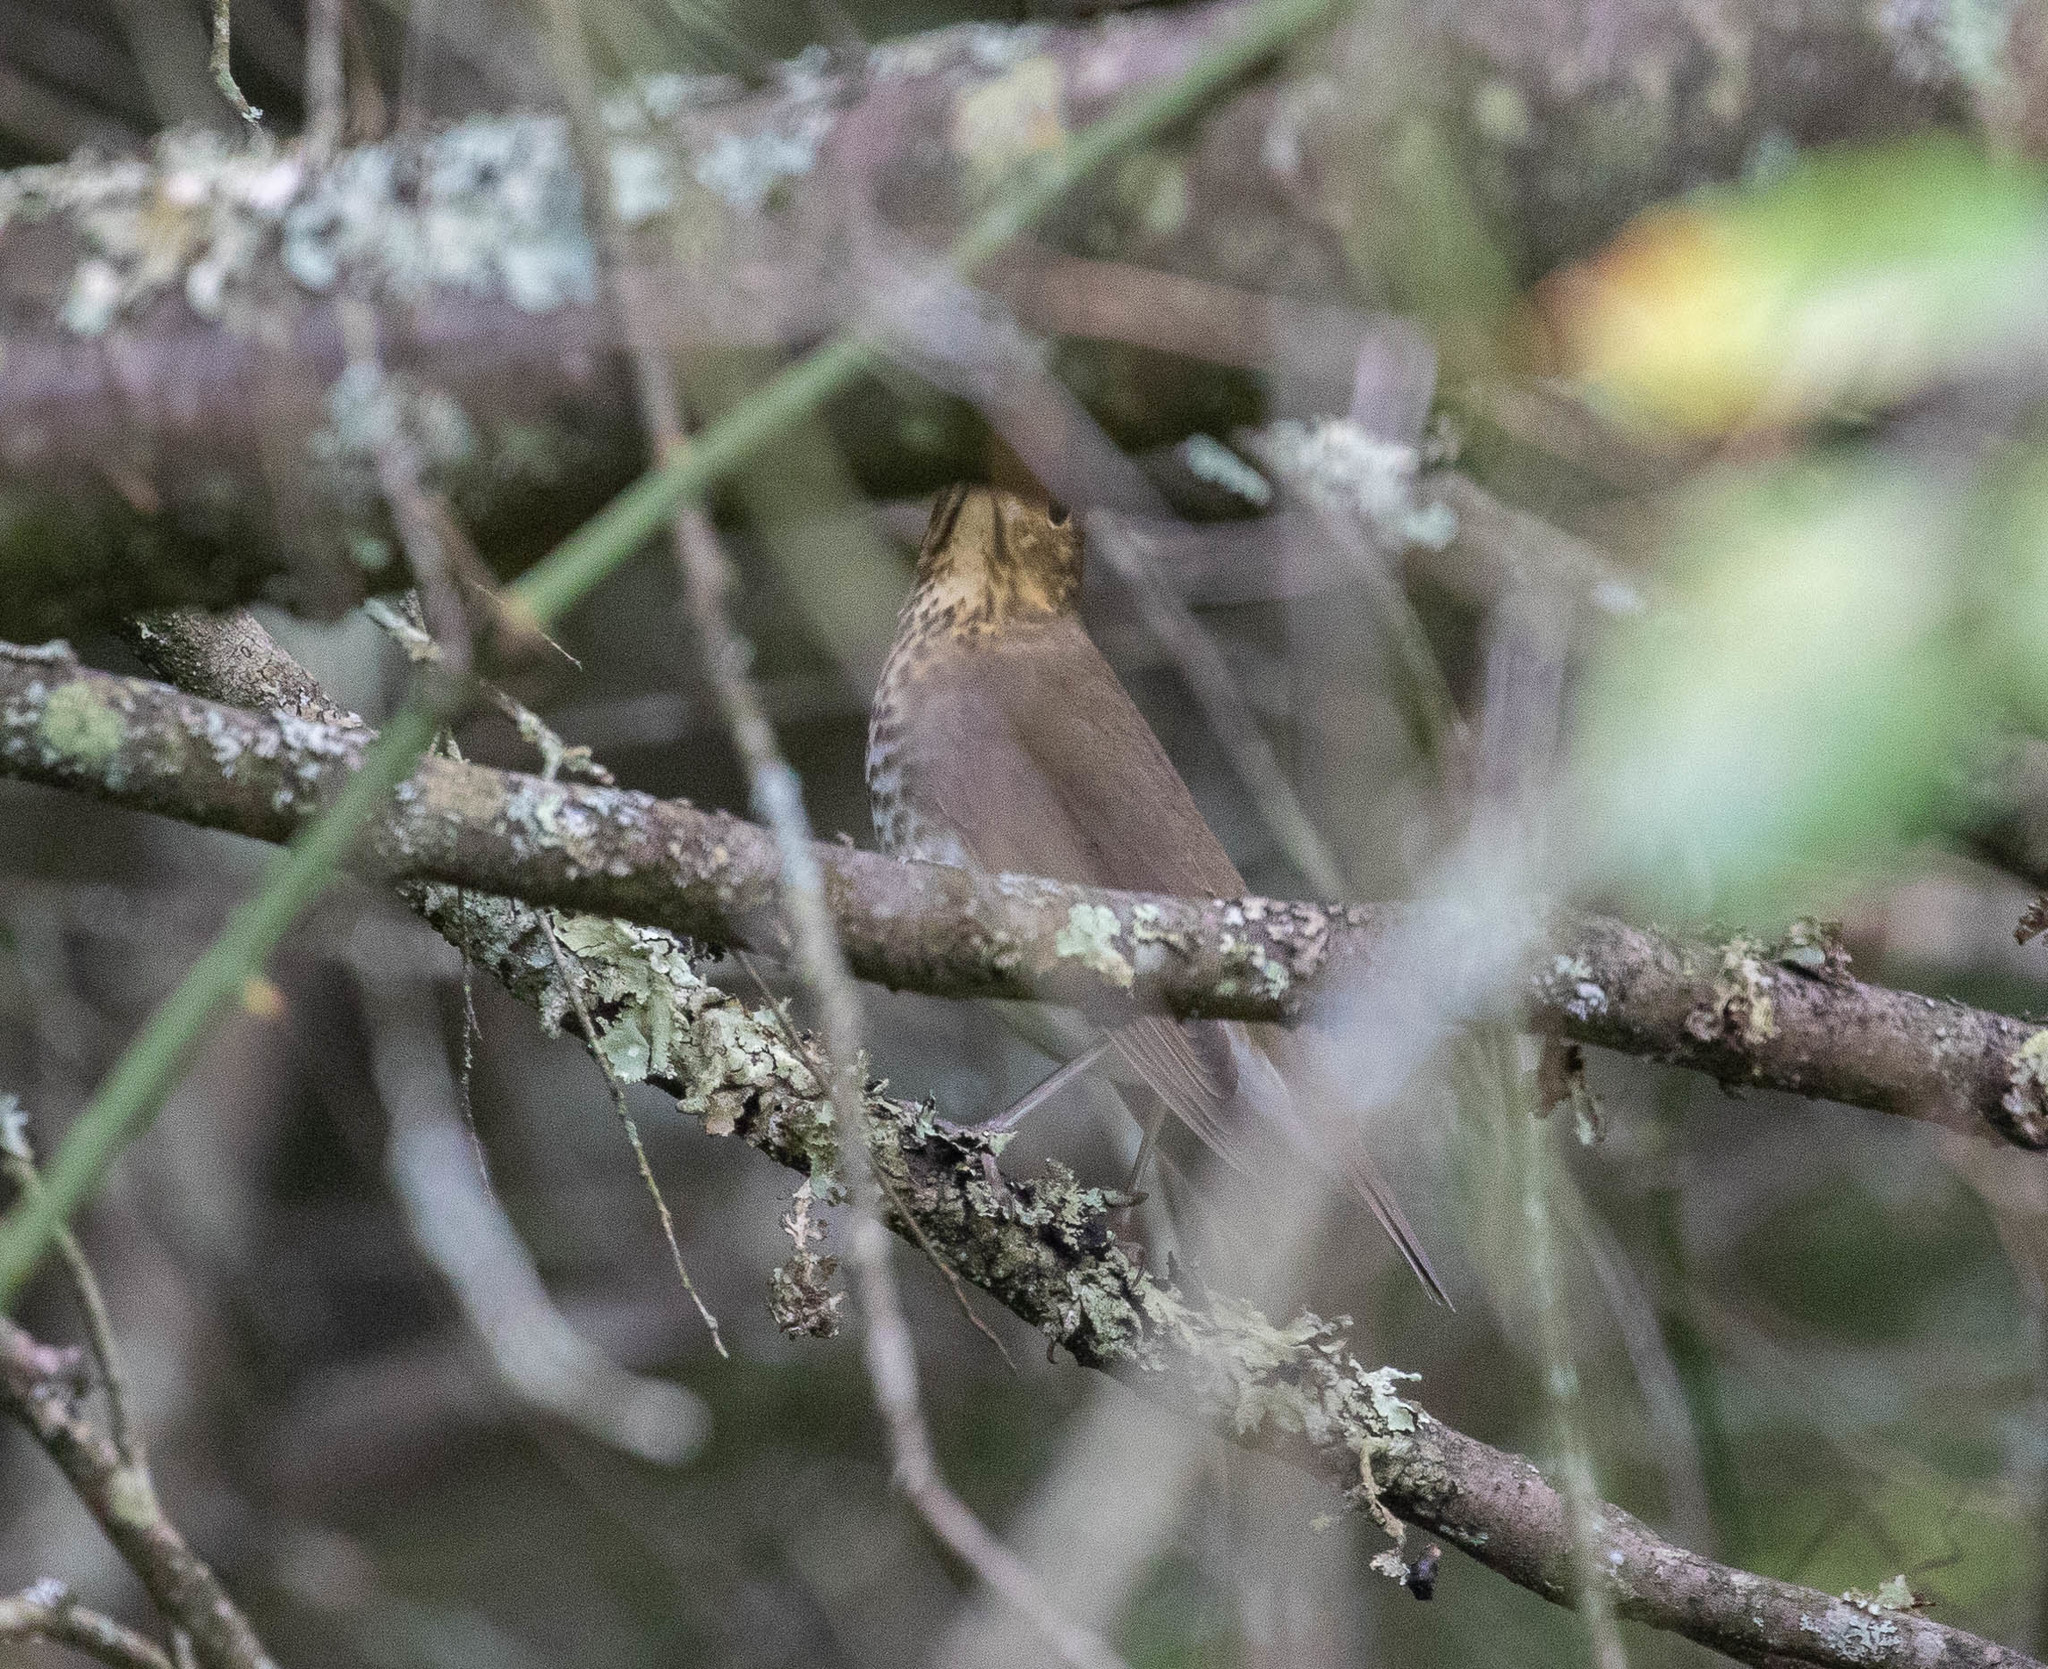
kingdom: Animalia
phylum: Chordata
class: Aves
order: Passeriformes
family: Turdidae
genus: Catharus
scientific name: Catharus ustulatus
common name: Swainson's thrush
